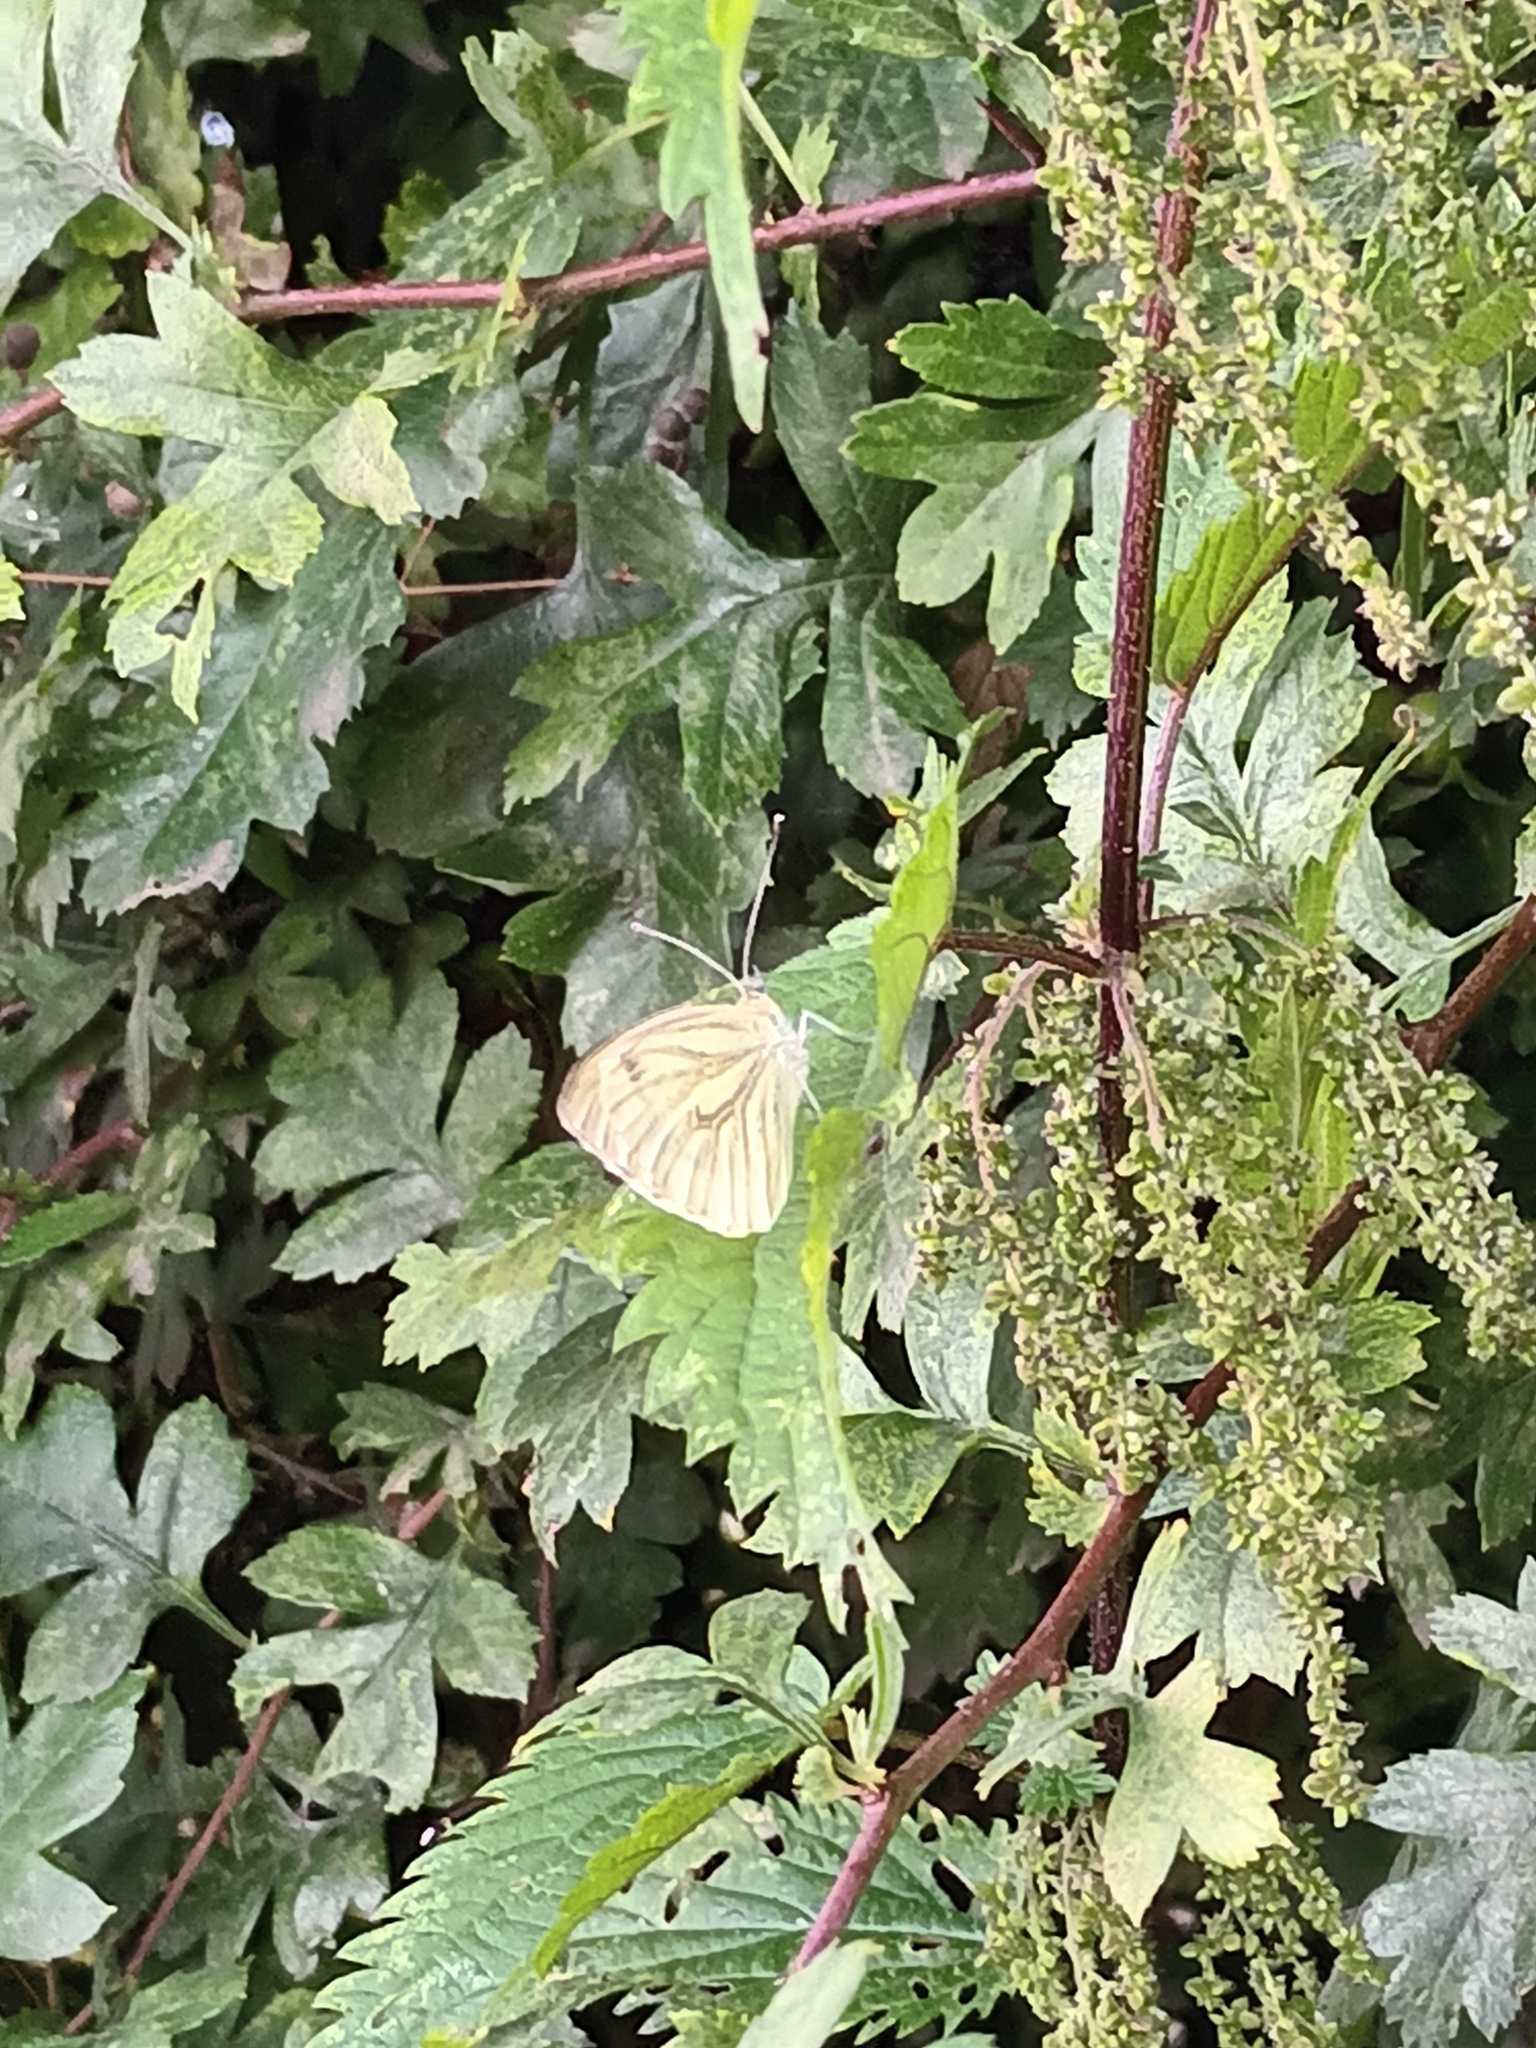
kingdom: Animalia
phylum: Arthropoda
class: Insecta
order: Lepidoptera
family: Pieridae
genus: Pieris
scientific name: Pieris napi
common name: Green-veined white
